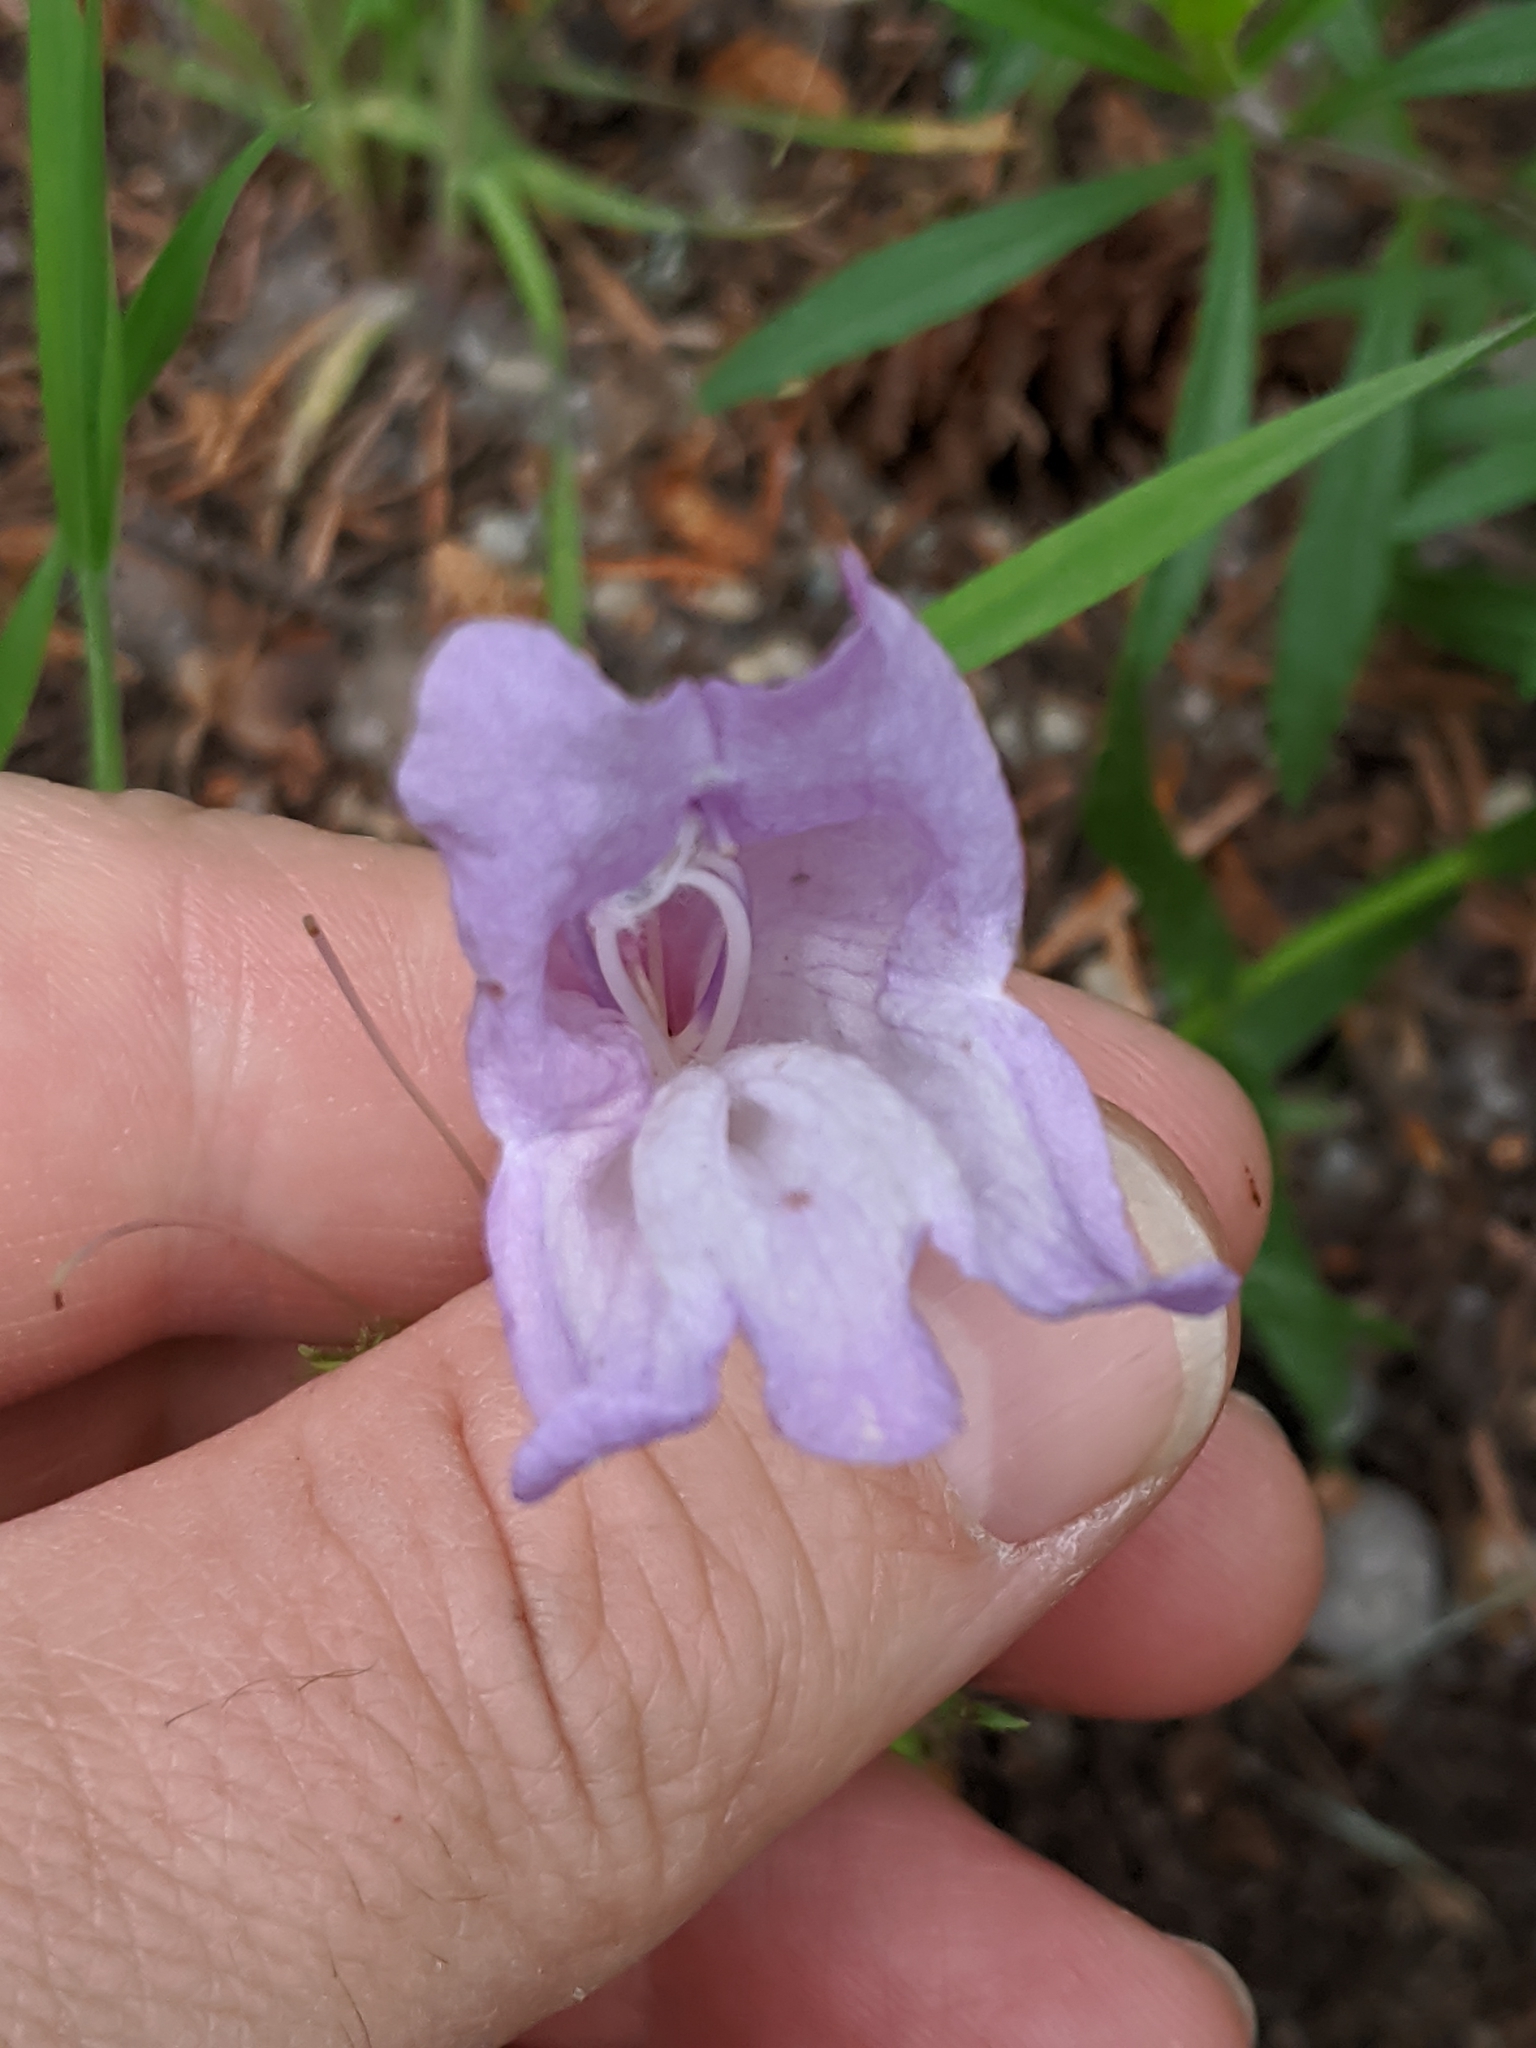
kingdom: Plantae
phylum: Tracheophyta
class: Magnoliopsida
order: Lamiales
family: Plantaginaceae
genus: Penstemon
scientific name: Penstemon fruticosus
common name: Bush penstemon
